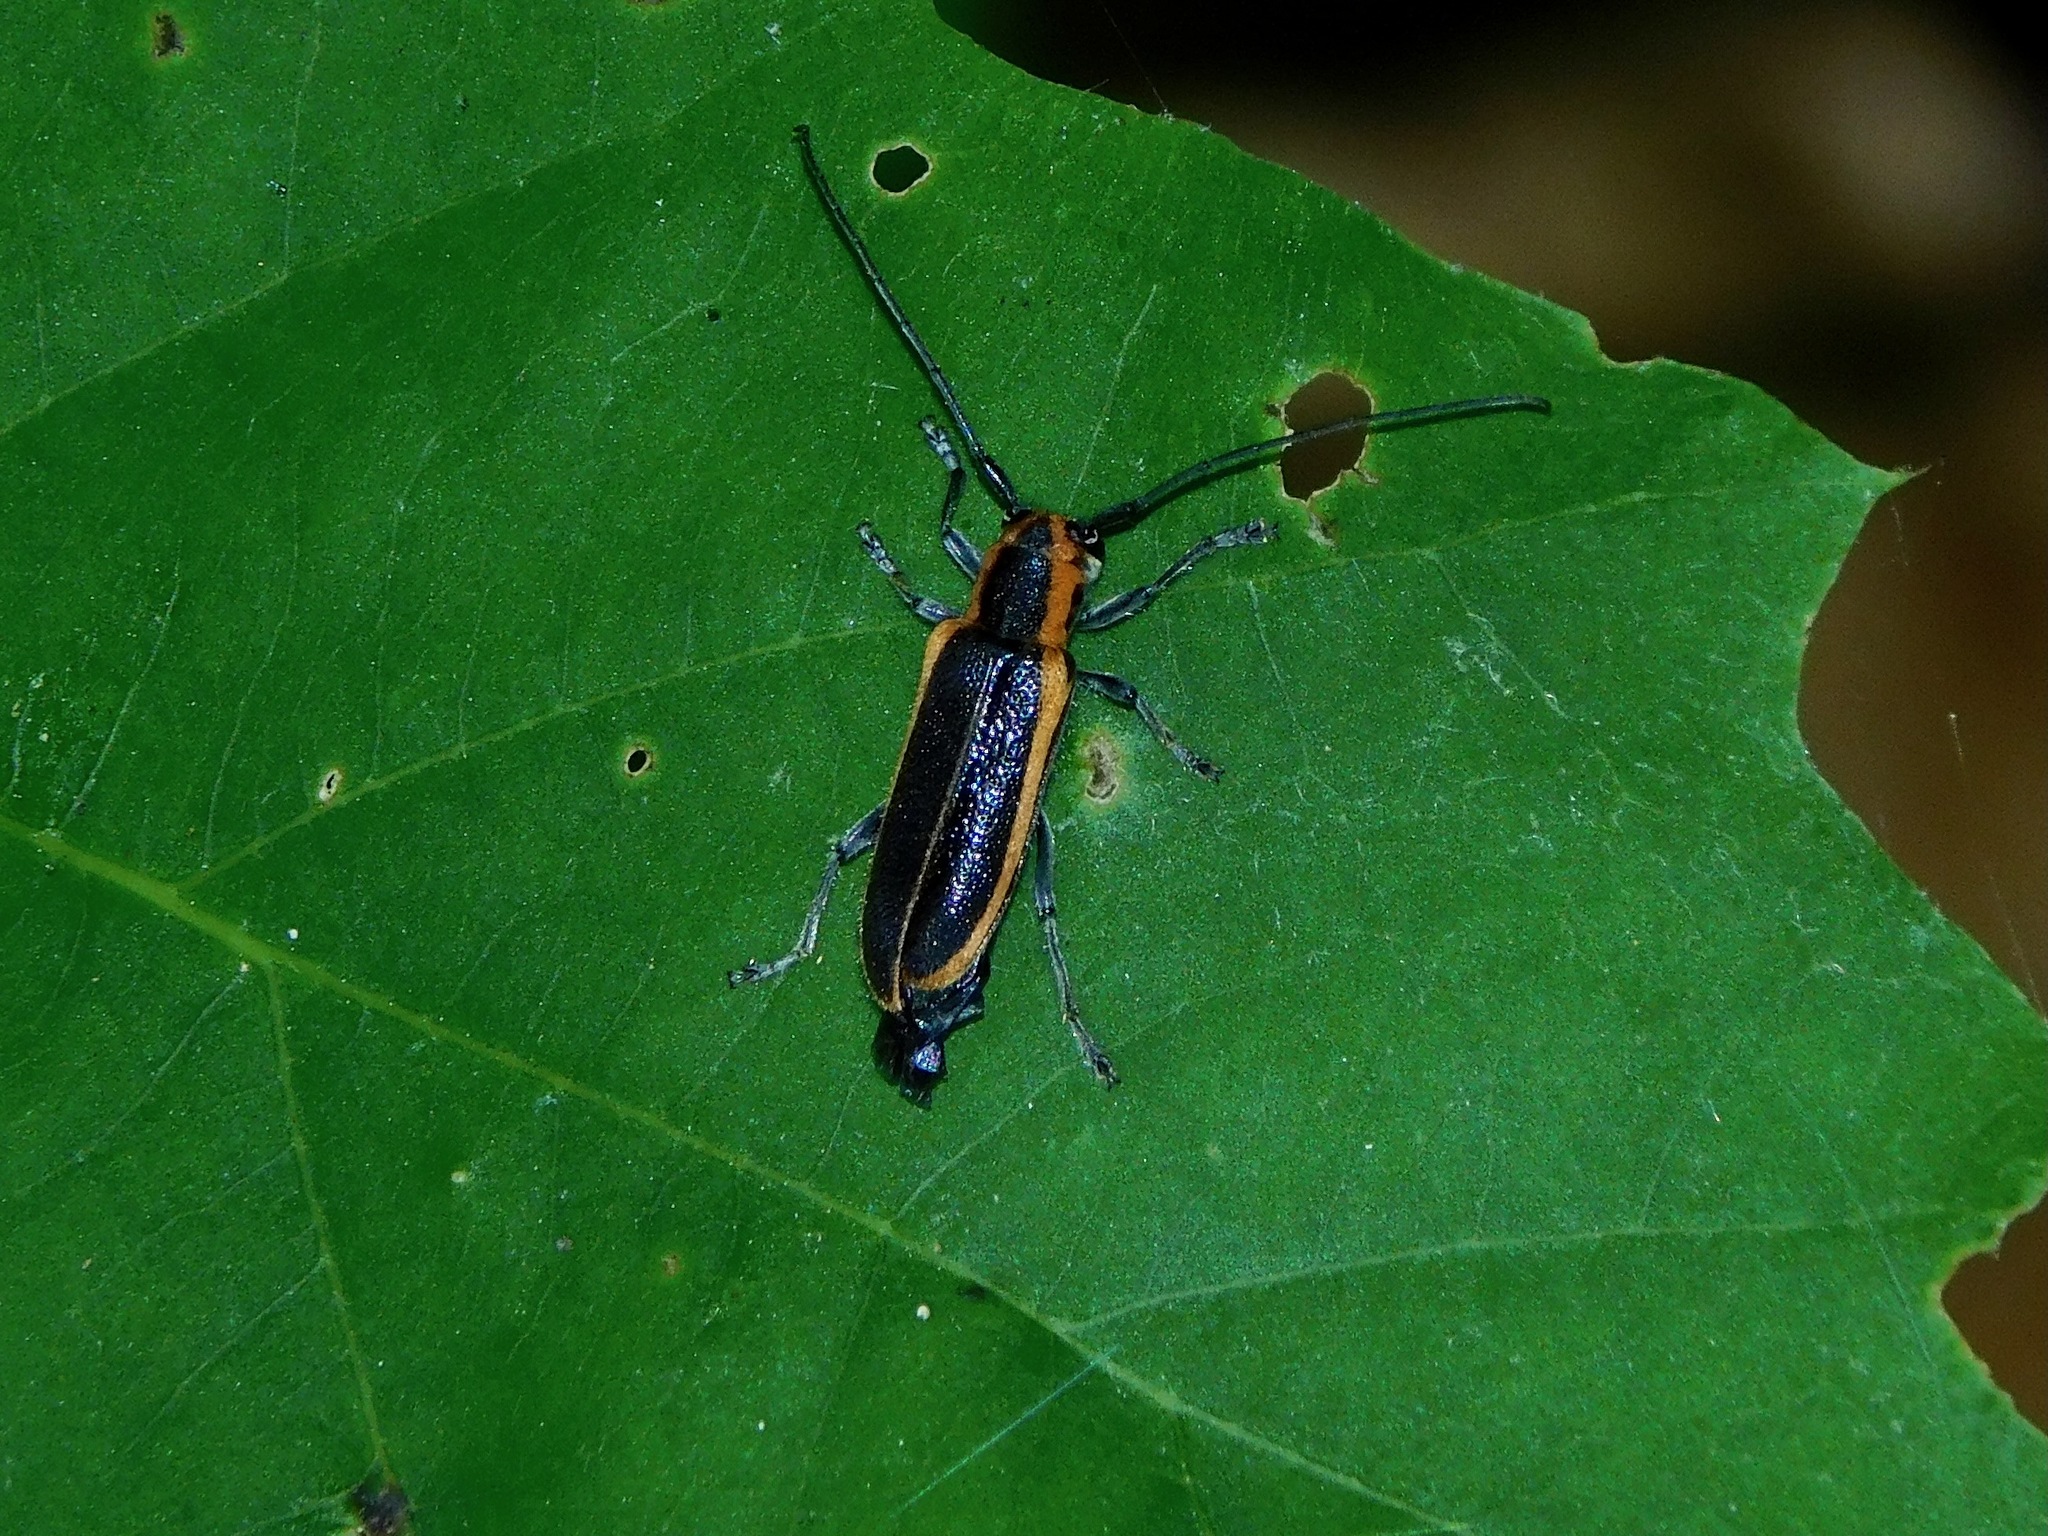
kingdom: Animalia
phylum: Arthropoda
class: Insecta
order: Coleoptera
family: Cerambycidae
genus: Saperda
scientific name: Saperda lateralis
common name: Red-edged saperda
